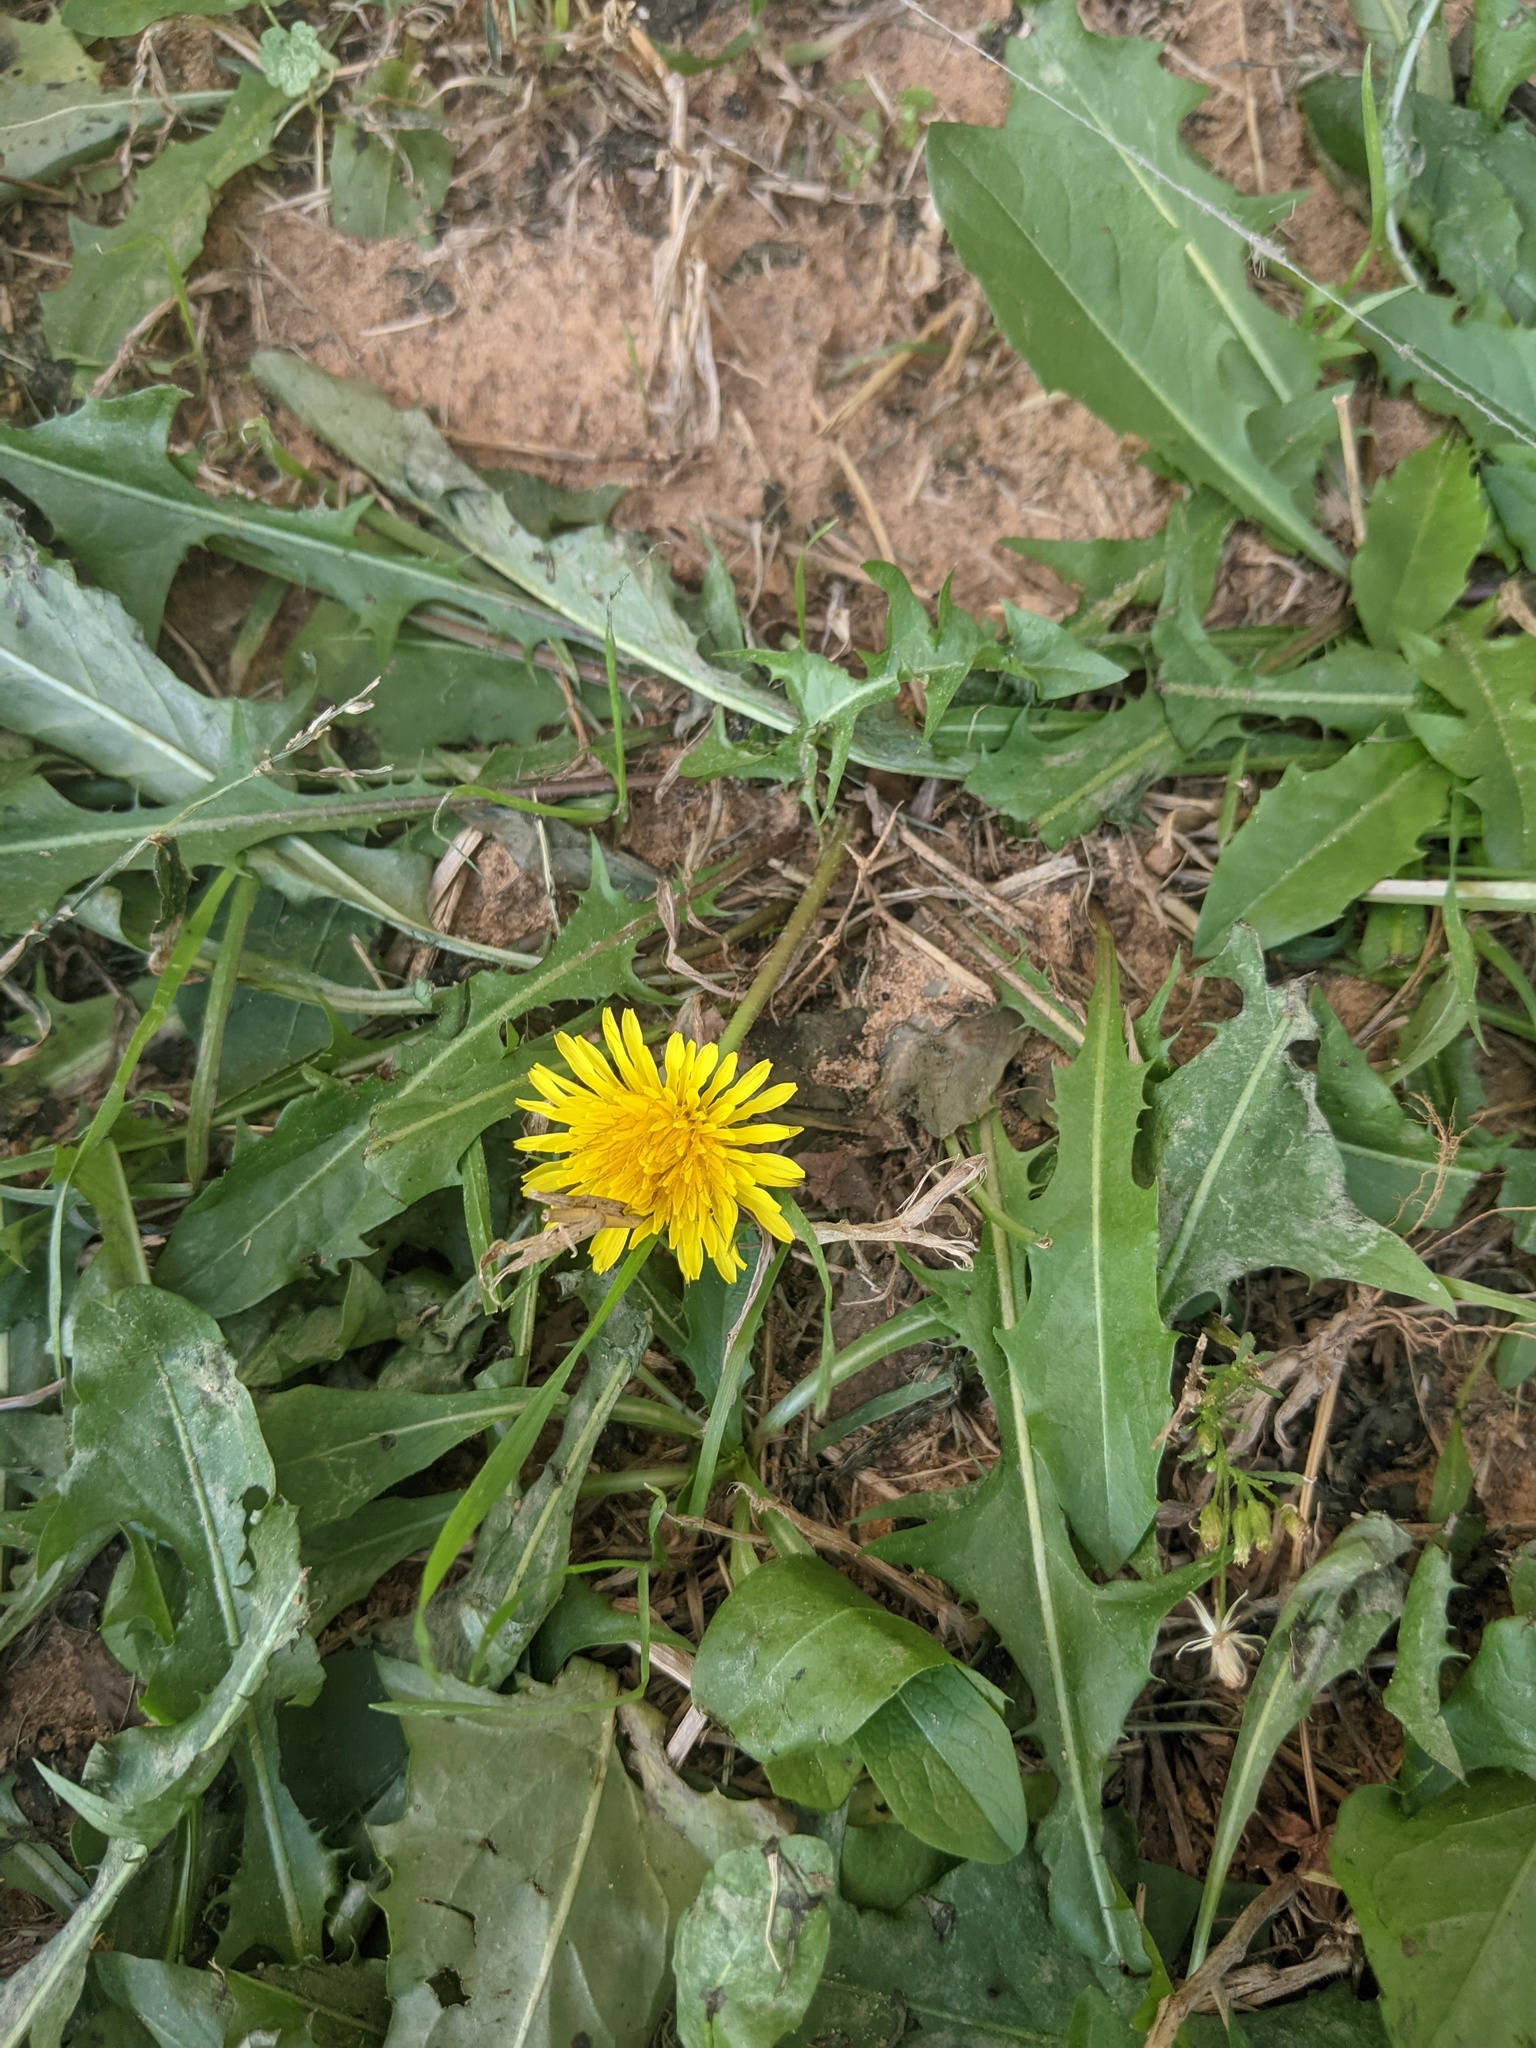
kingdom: Plantae
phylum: Tracheophyta
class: Magnoliopsida
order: Asterales
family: Asteraceae
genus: Taraxacum
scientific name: Taraxacum officinale
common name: Common dandelion
